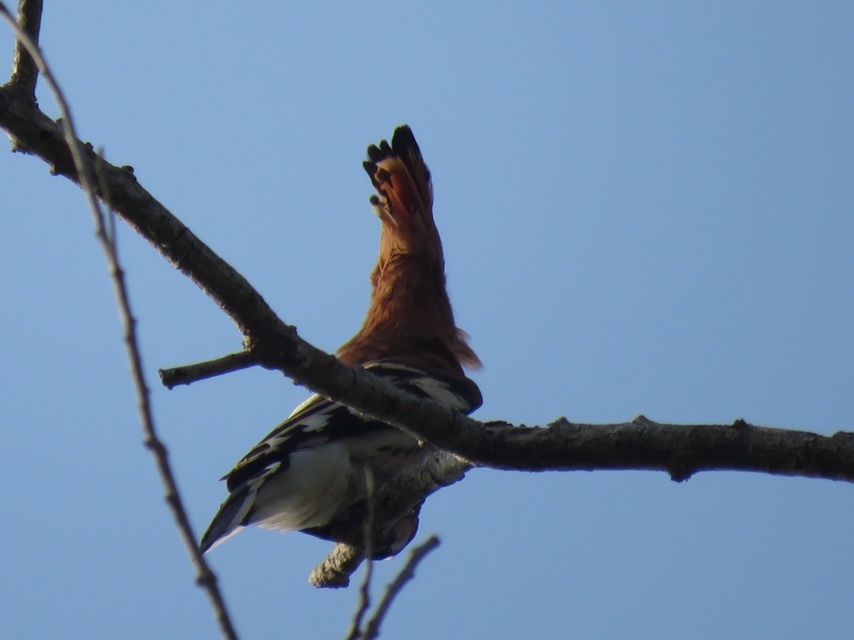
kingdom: Animalia
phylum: Chordata
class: Aves
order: Bucerotiformes
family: Upupidae
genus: Upupa
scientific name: Upupa epops
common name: Eurasian hoopoe
